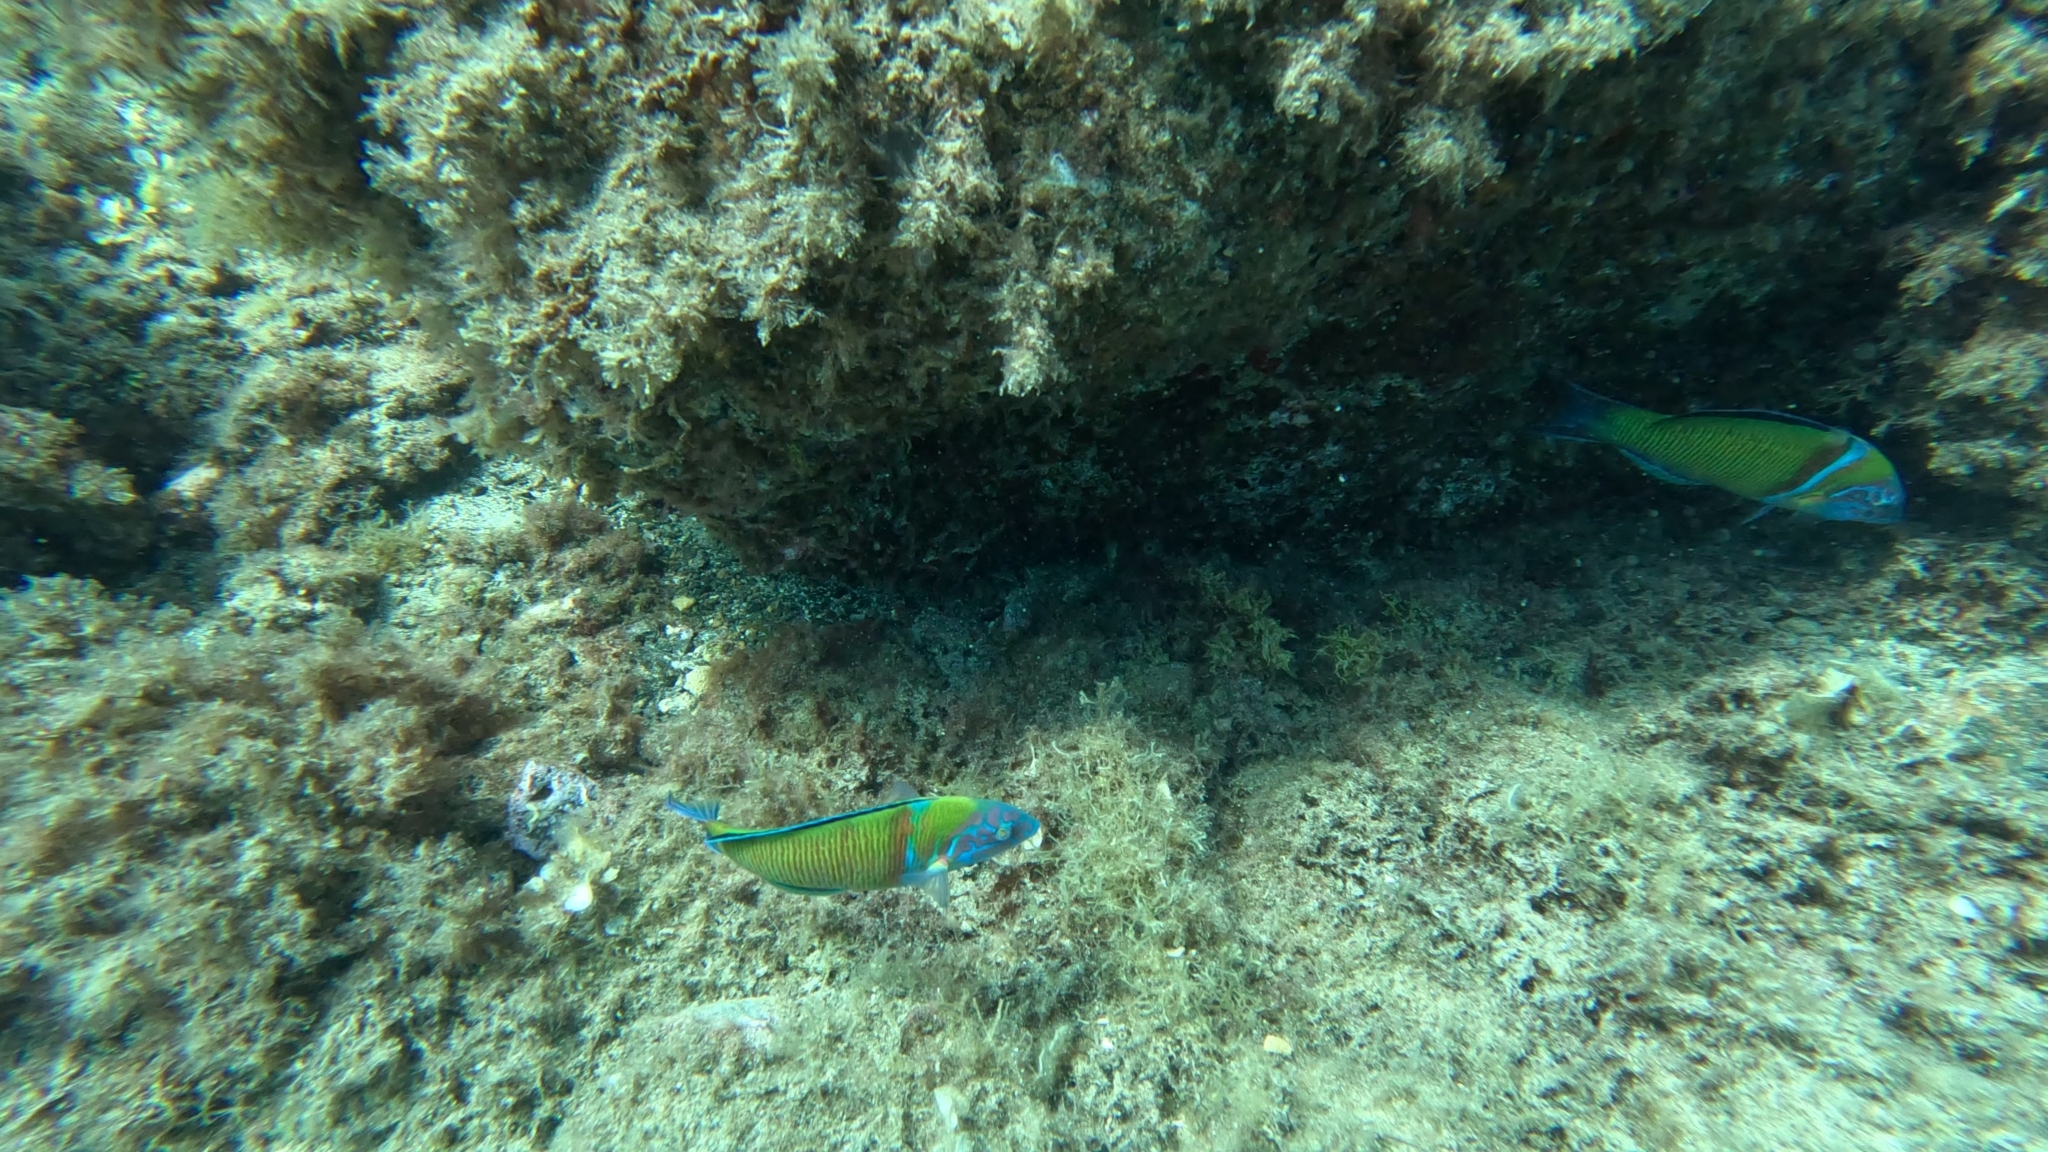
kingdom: Animalia
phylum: Chordata
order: Perciformes
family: Labridae
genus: Thalassoma
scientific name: Thalassoma pavo
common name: Ornate wrasse
